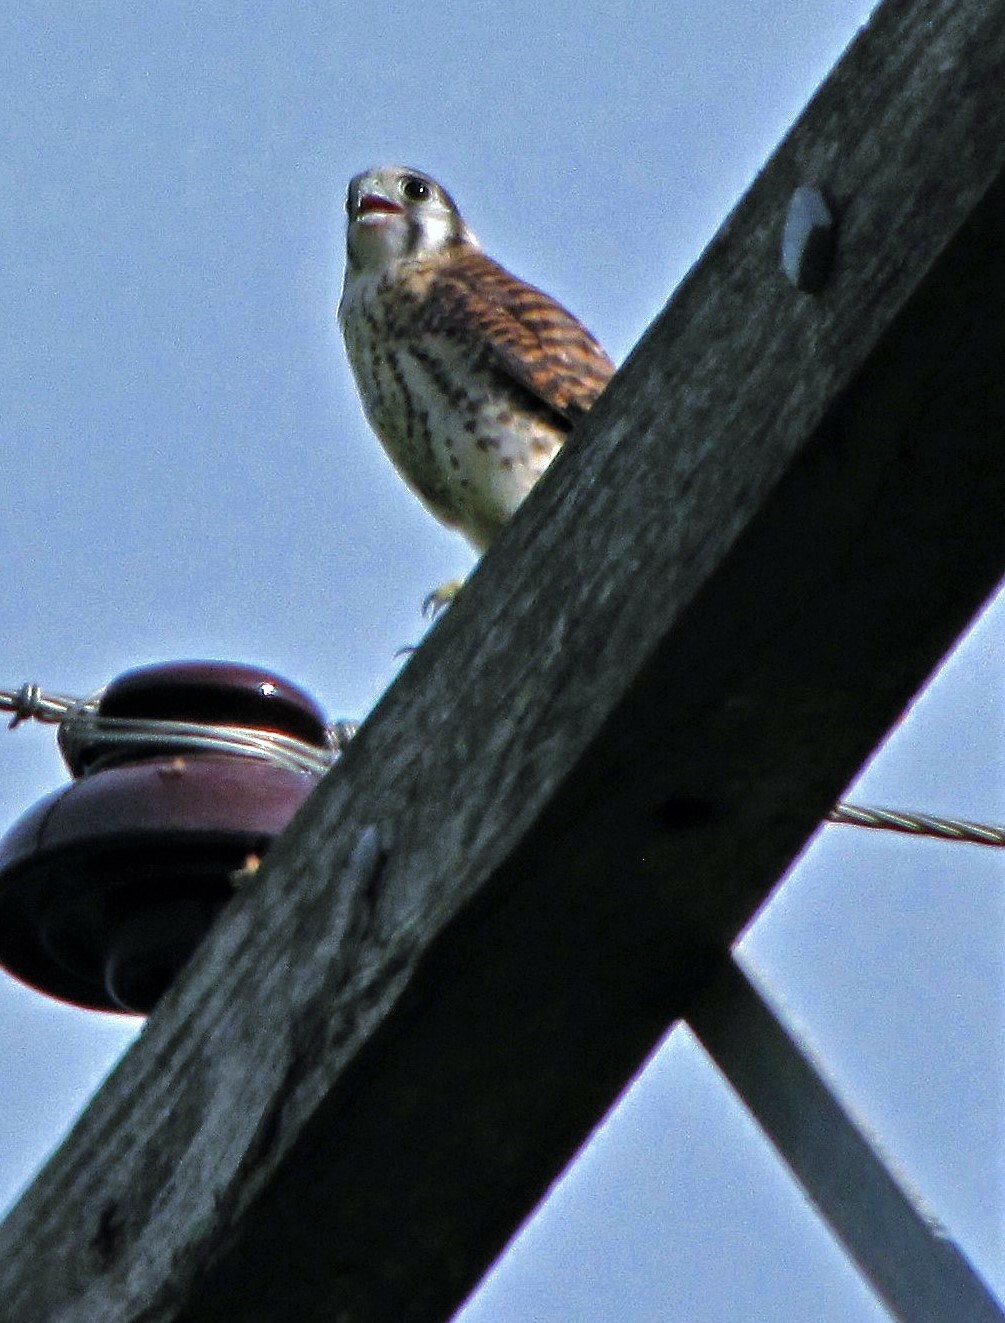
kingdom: Animalia
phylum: Chordata
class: Aves
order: Falconiformes
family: Falconidae
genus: Falco
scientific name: Falco sparverius
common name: American kestrel
